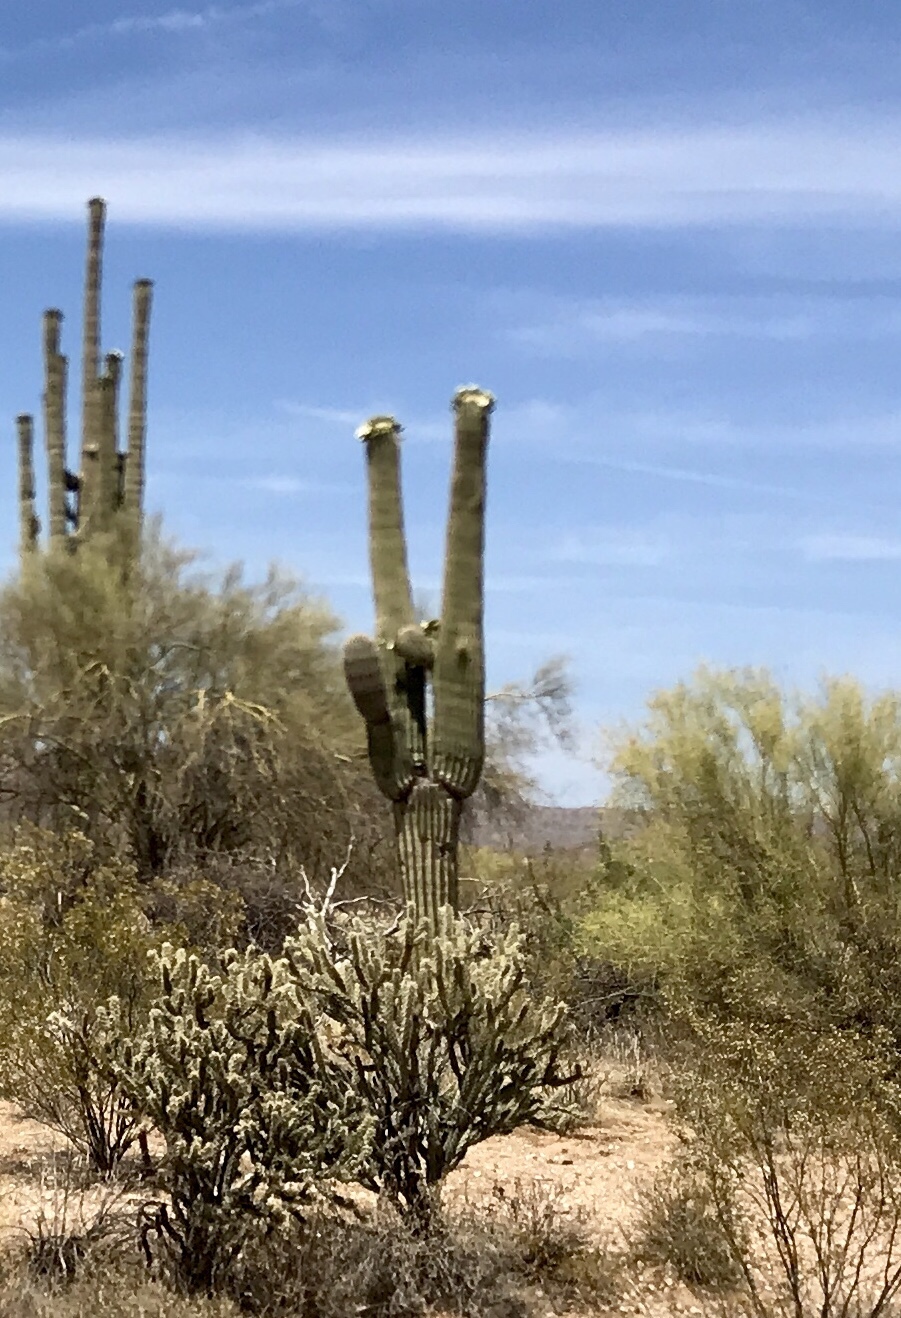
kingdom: Plantae
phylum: Tracheophyta
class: Magnoliopsida
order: Caryophyllales
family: Cactaceae
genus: Carnegiea
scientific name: Carnegiea gigantea
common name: Saguaro
